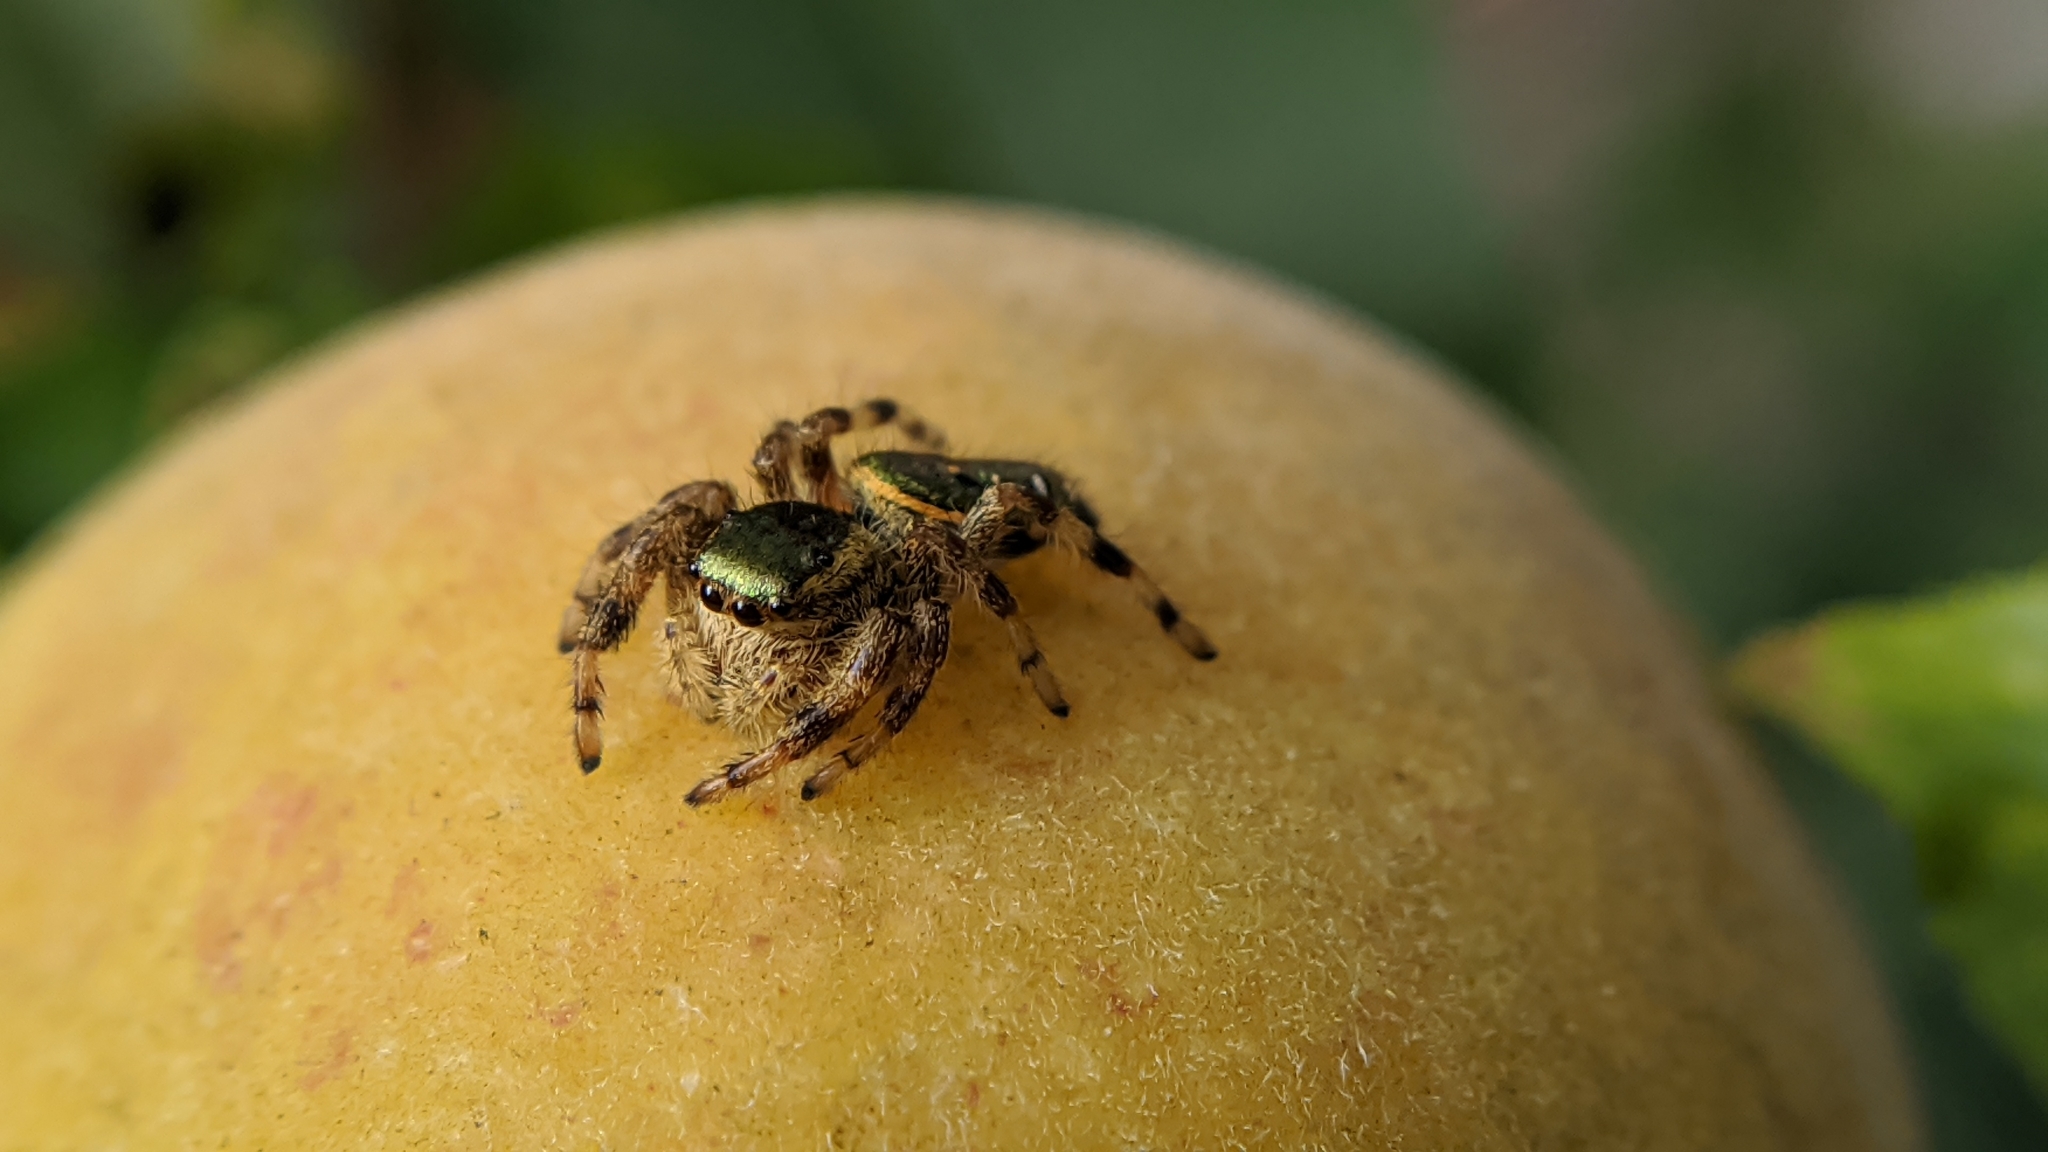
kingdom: Animalia
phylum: Arthropoda
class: Arachnida
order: Araneae
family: Salticidae
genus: Paraphidippus
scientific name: Paraphidippus aurantius
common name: Jumping spiders
